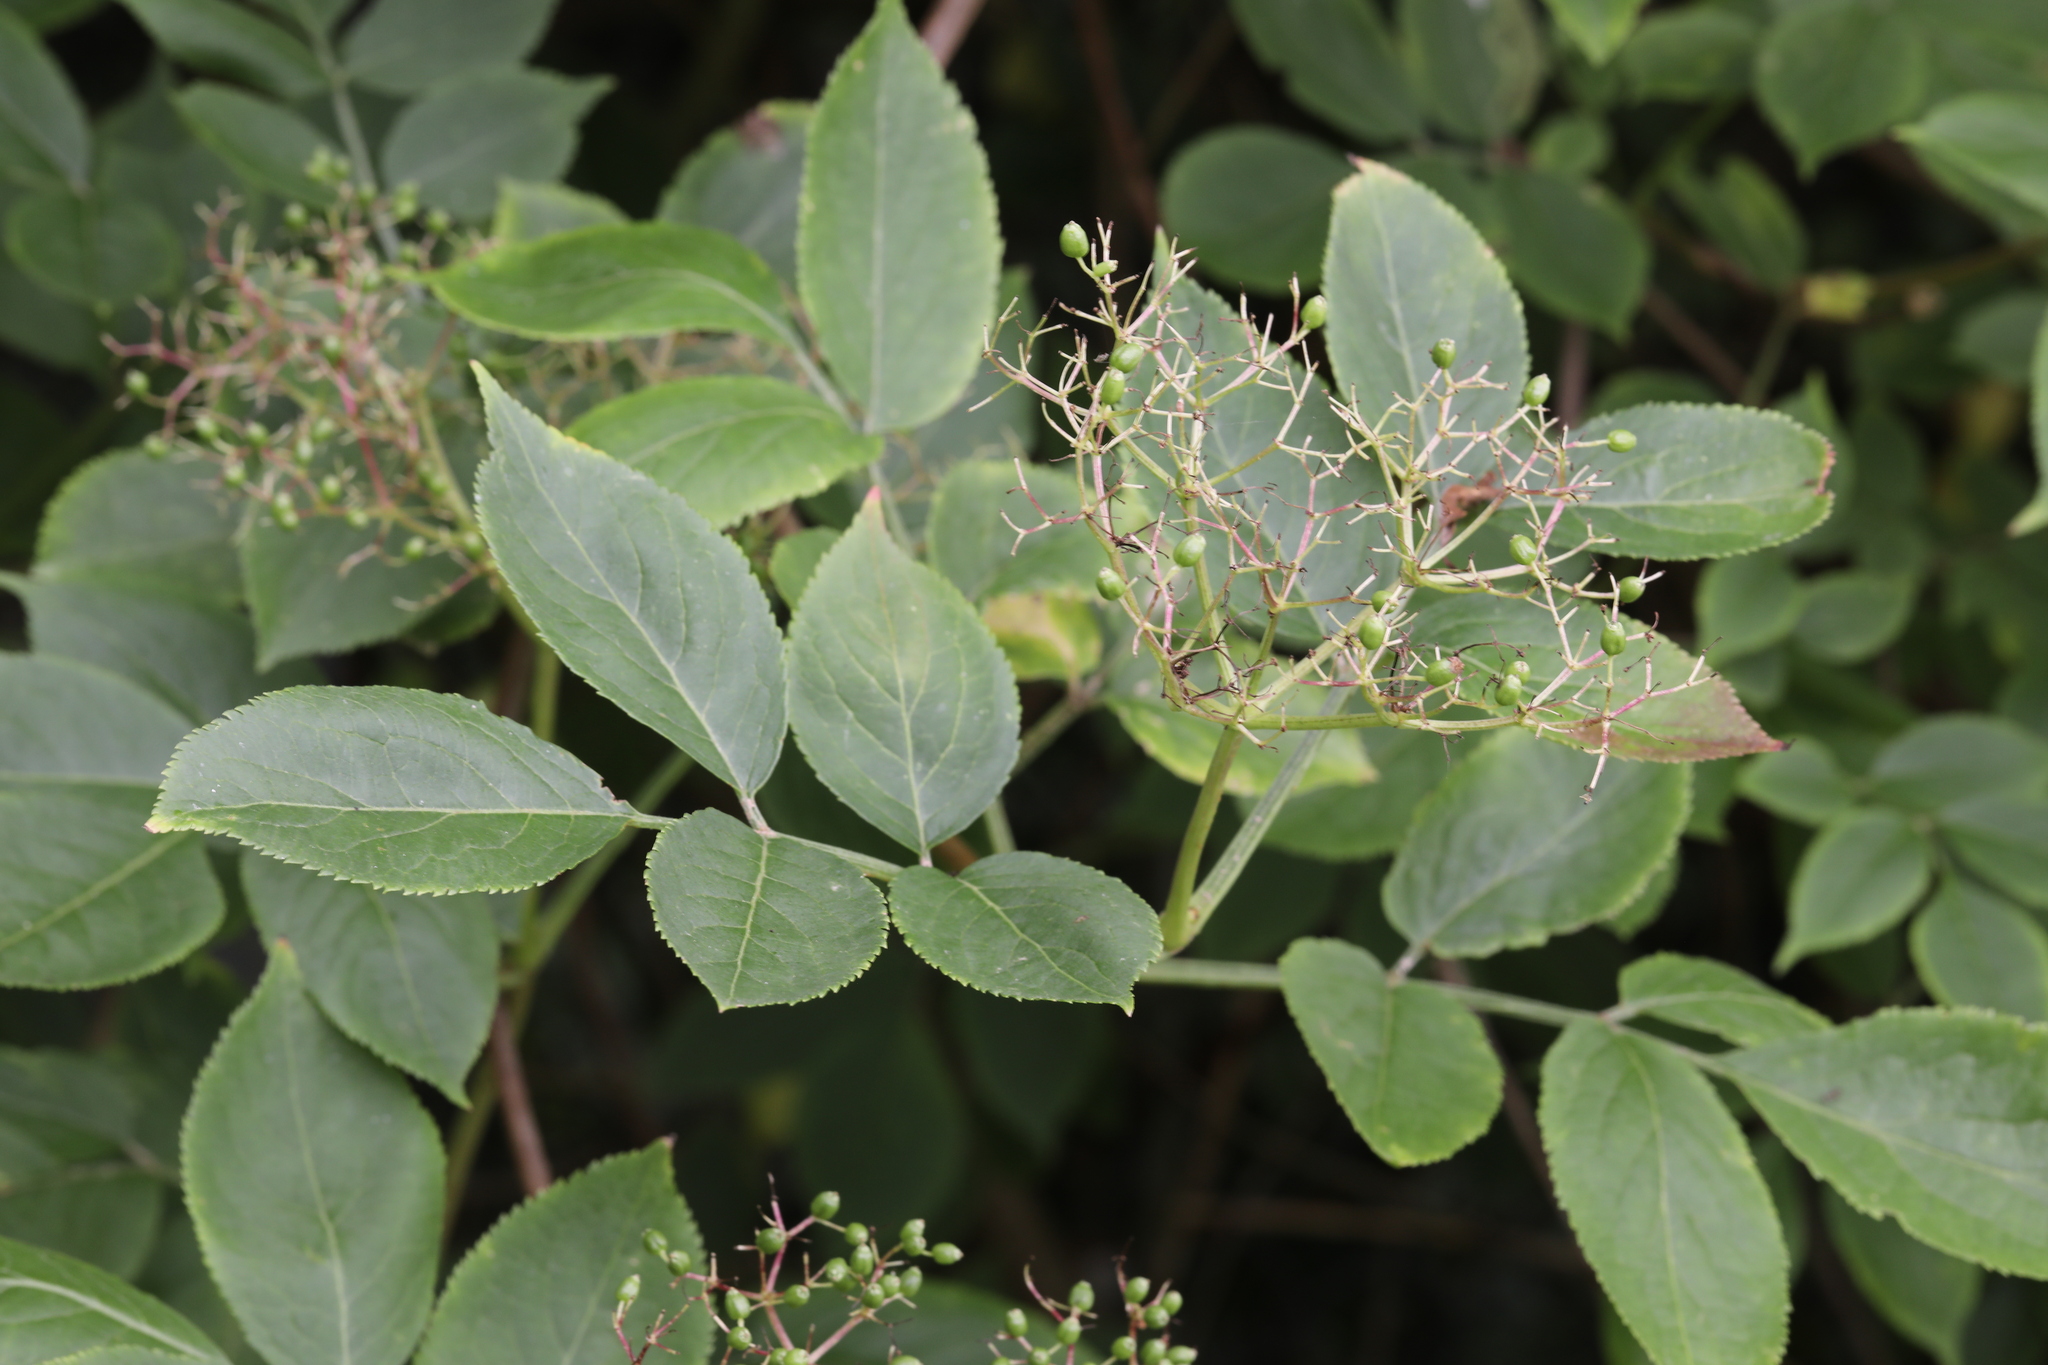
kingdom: Plantae
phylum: Tracheophyta
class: Magnoliopsida
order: Dipsacales
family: Viburnaceae
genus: Sambucus
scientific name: Sambucus nigra
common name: Elder
